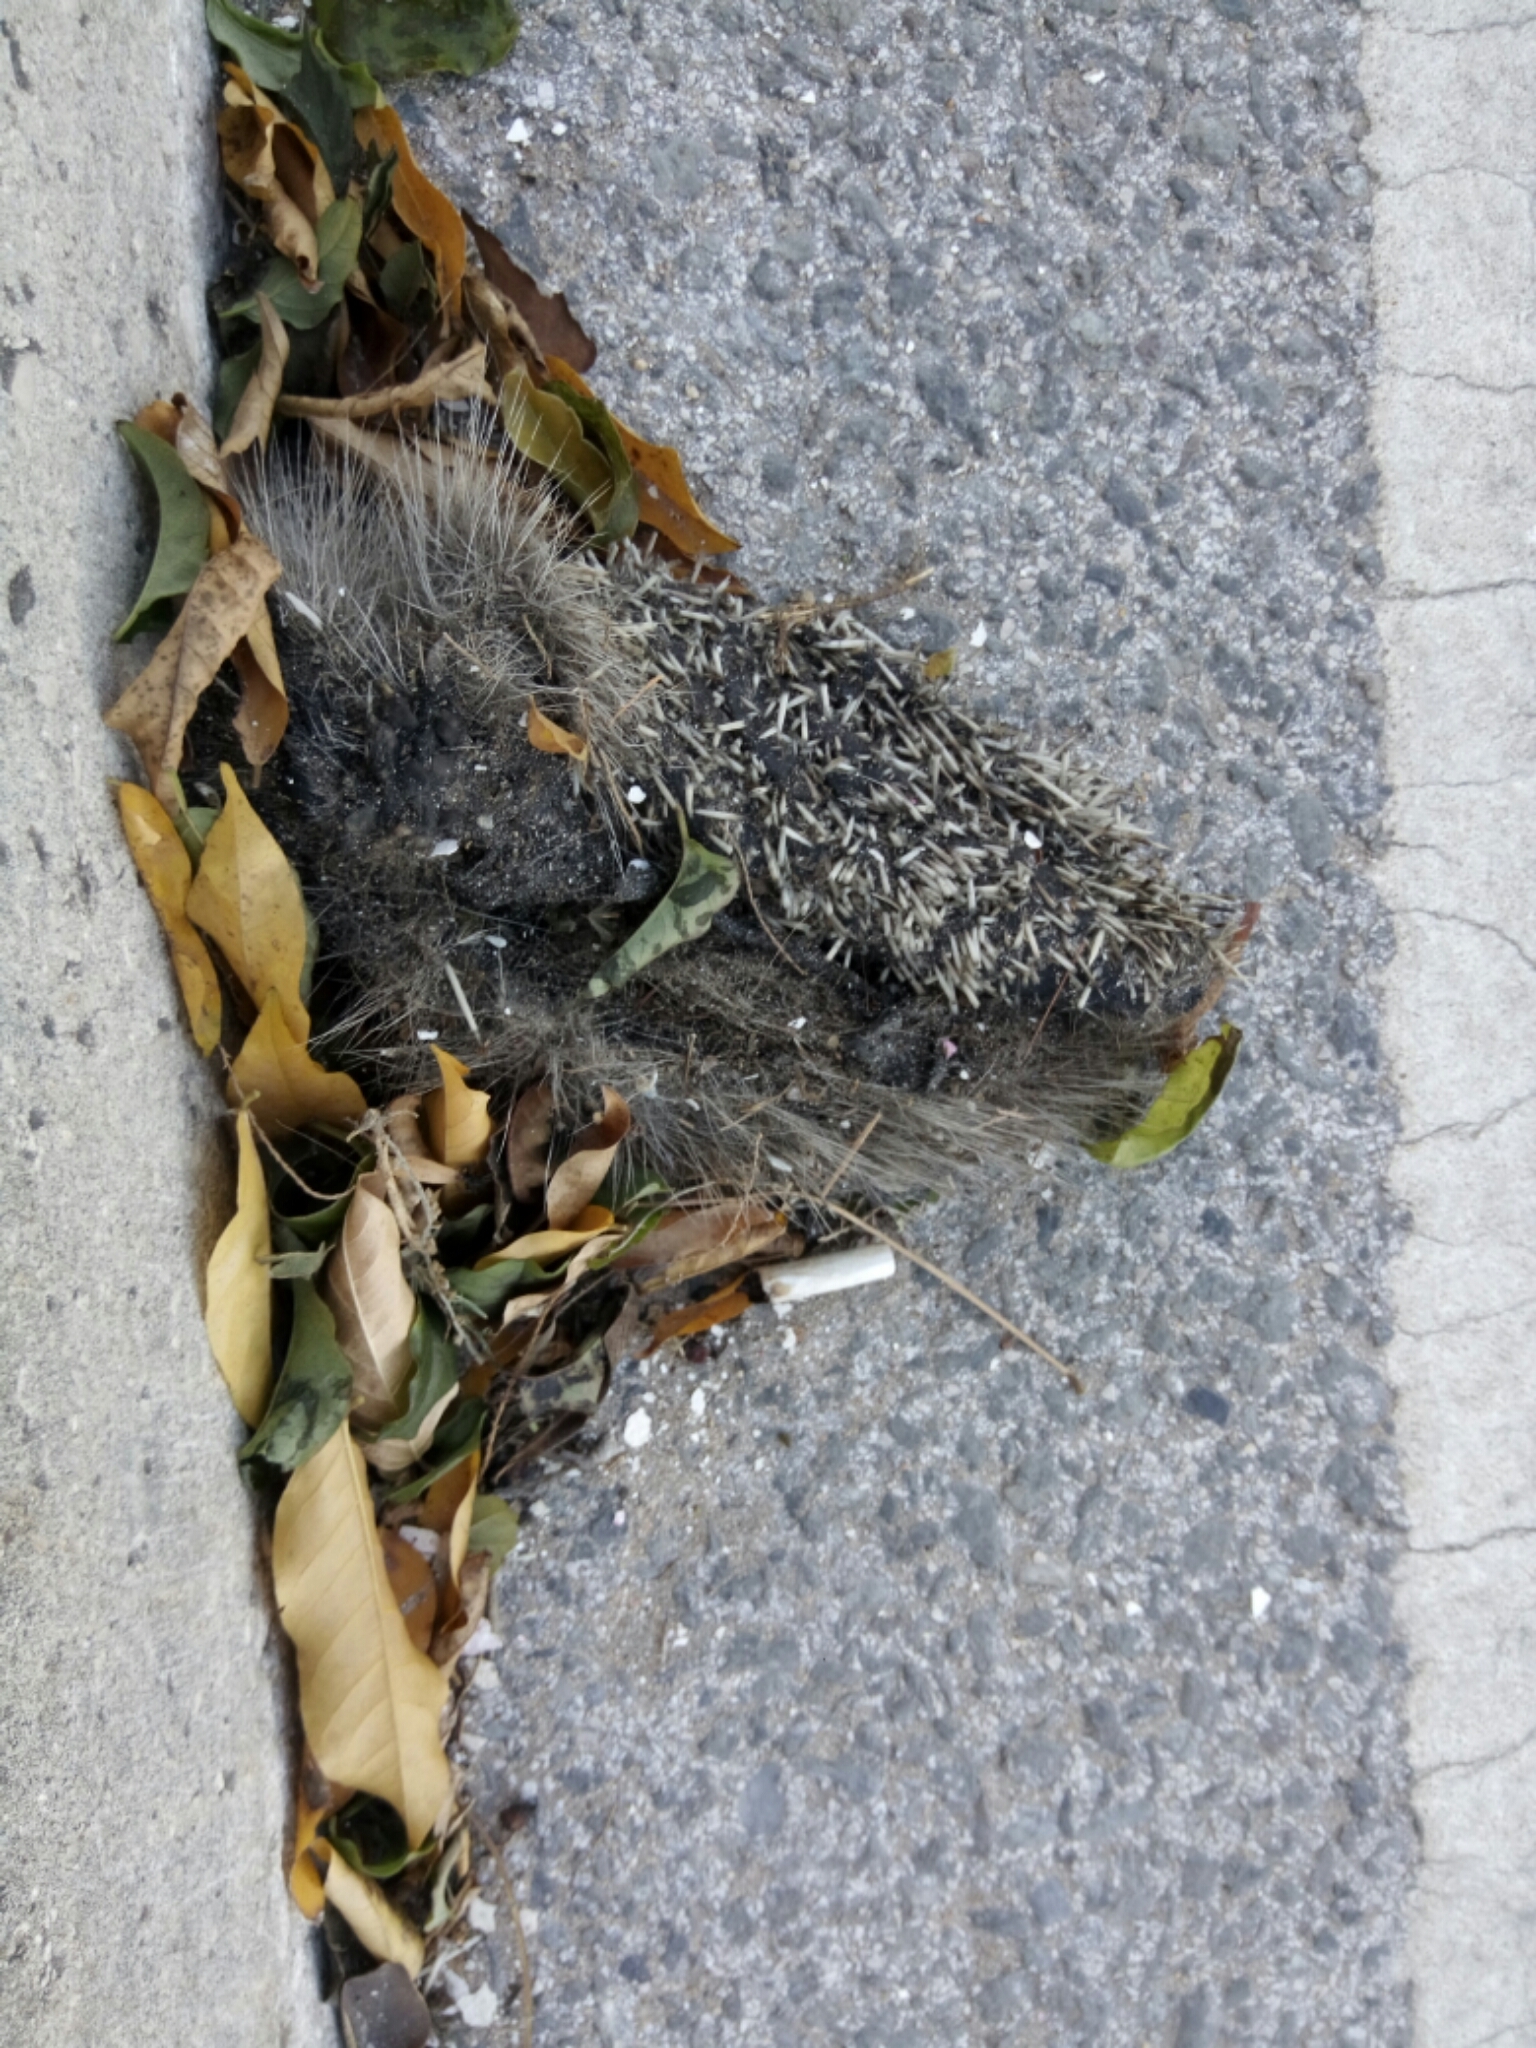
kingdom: Animalia
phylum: Chordata
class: Mammalia
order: Erinaceomorpha
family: Erinaceidae
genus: Erinaceus
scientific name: Erinaceus europaeus
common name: West european hedgehog
